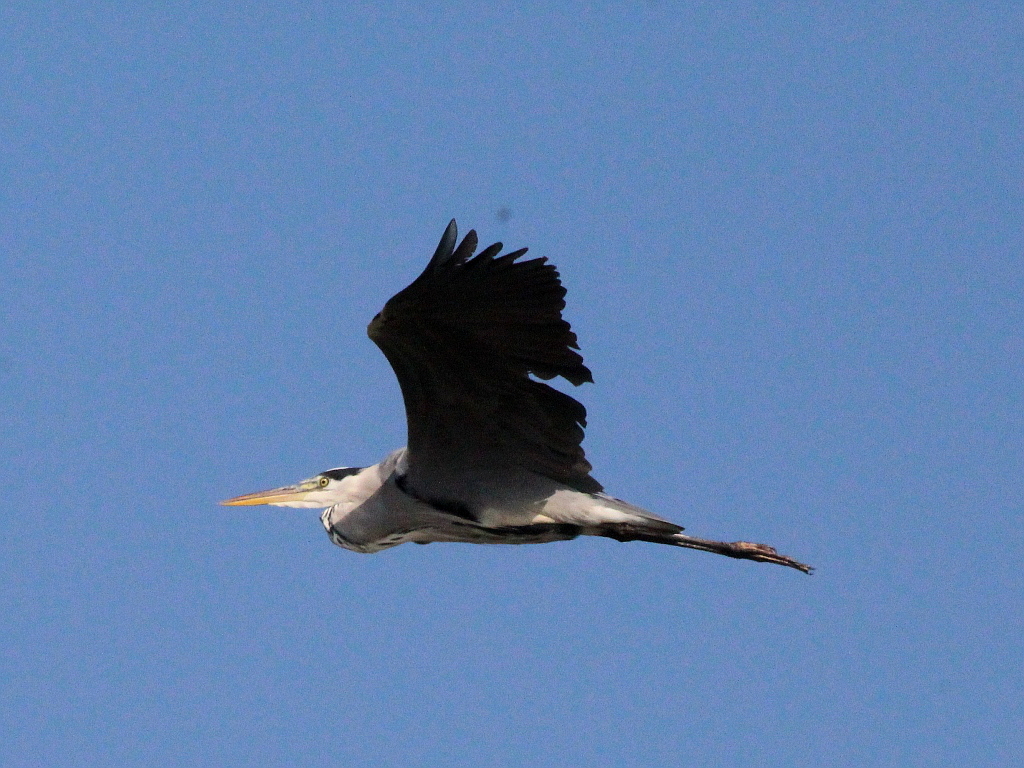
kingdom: Animalia
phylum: Chordata
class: Aves
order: Pelecaniformes
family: Ardeidae
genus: Ardea
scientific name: Ardea cinerea
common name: Grey heron
